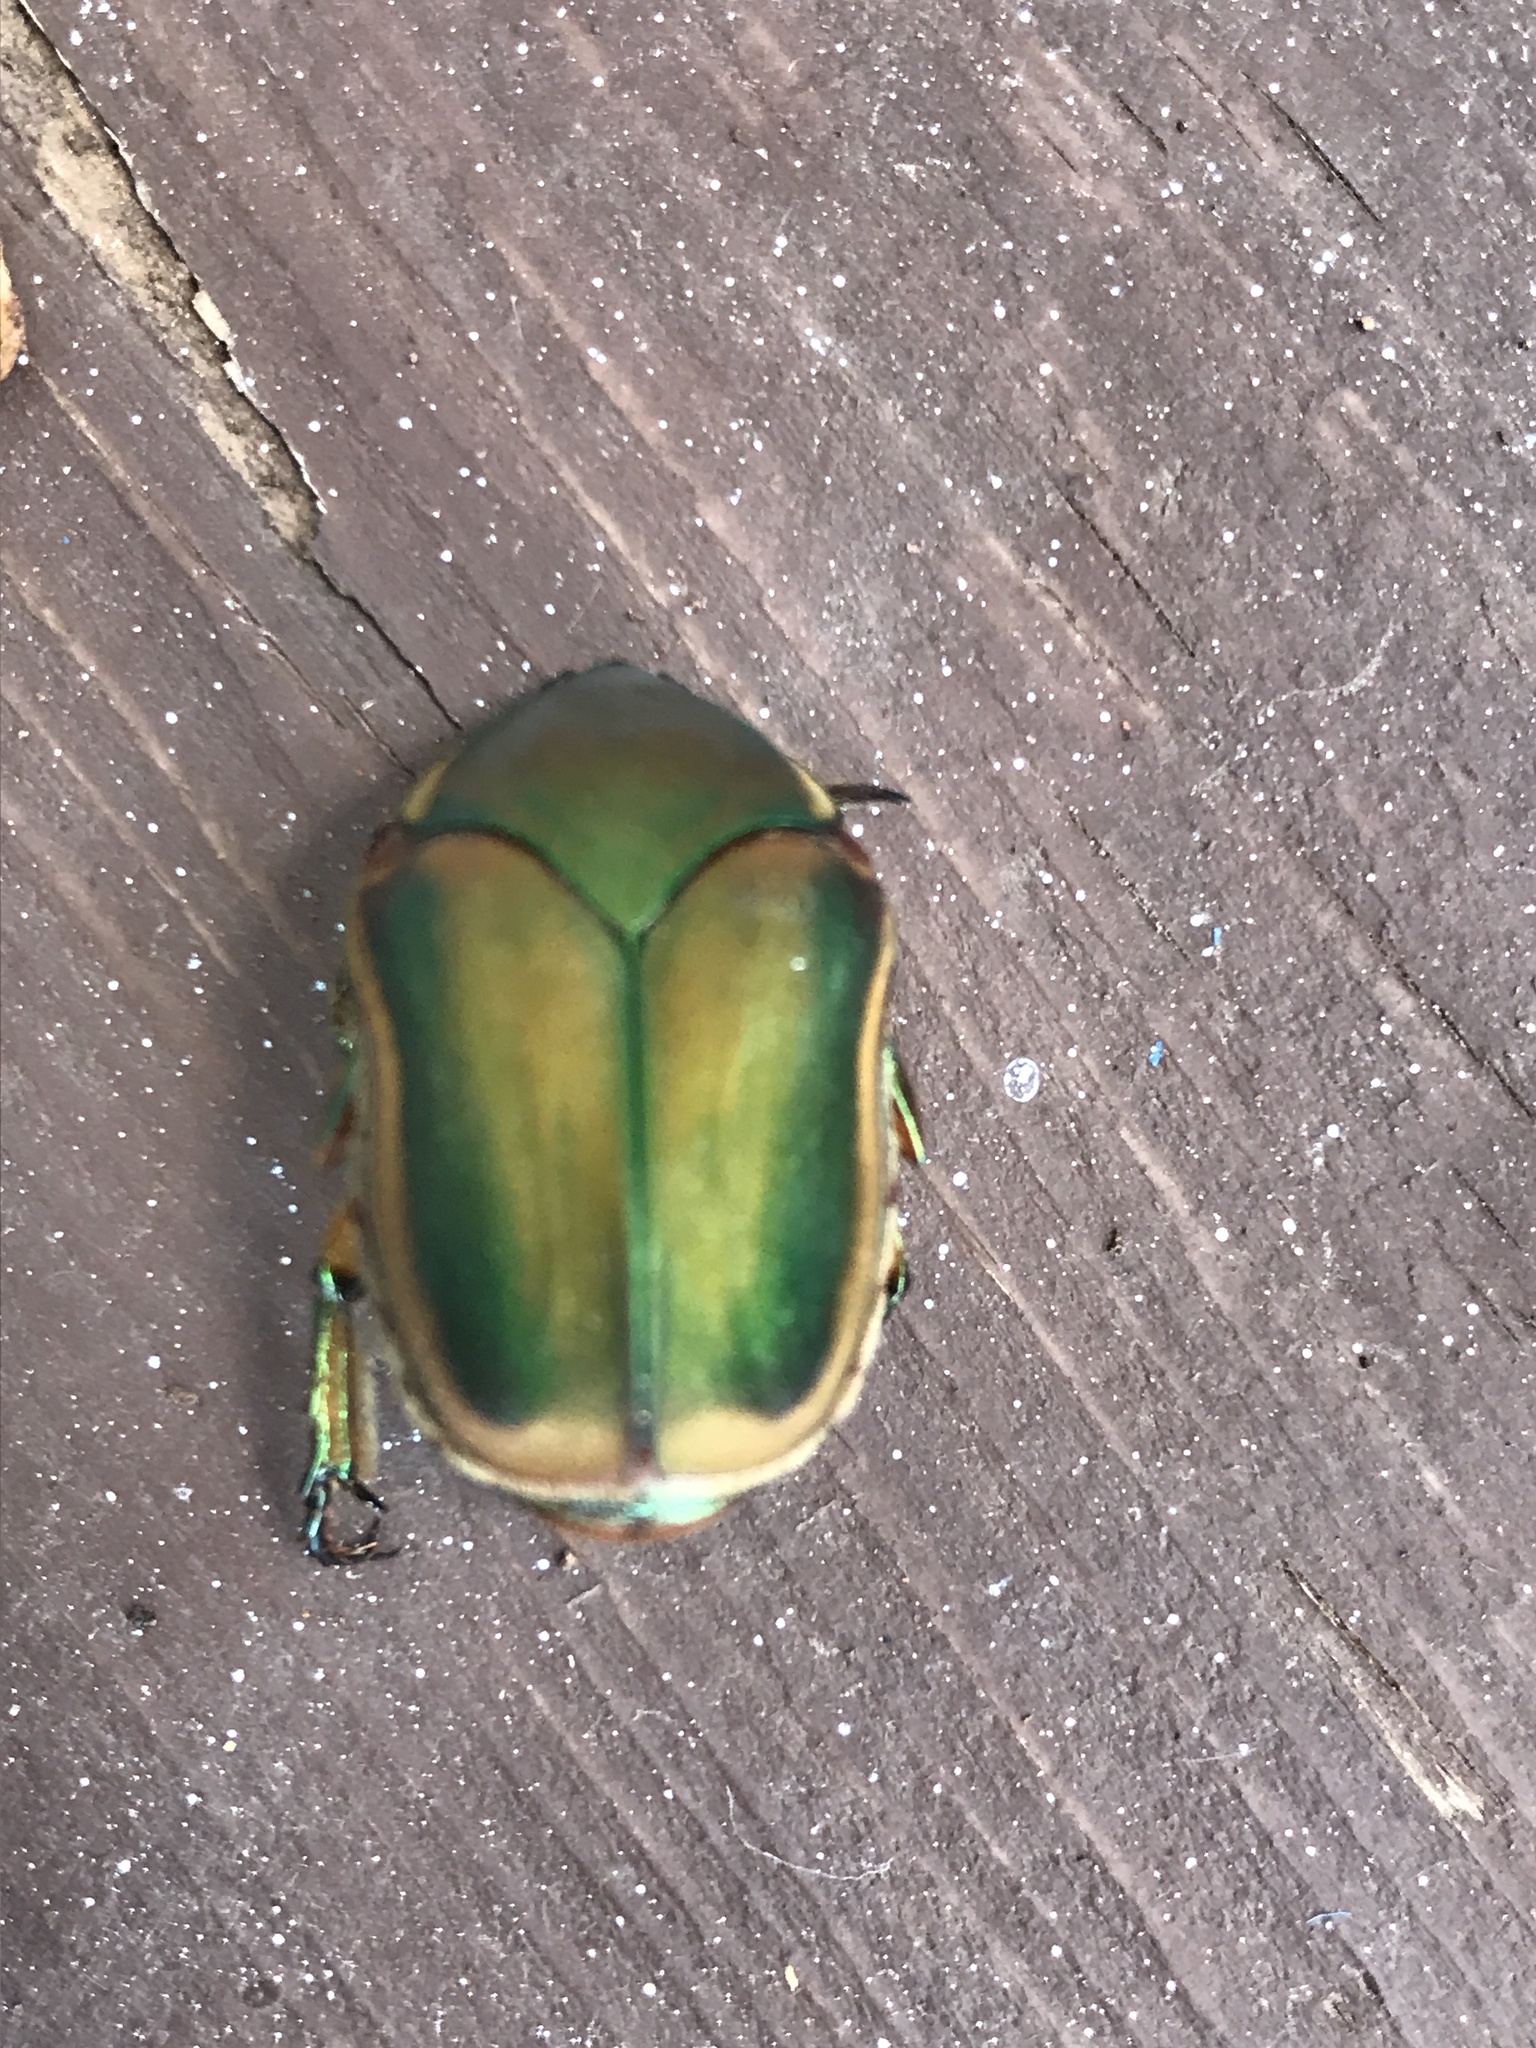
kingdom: Animalia
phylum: Arthropoda
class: Insecta
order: Coleoptera
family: Scarabaeidae
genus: Cotinis
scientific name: Cotinis nitida
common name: Common green june beetle
